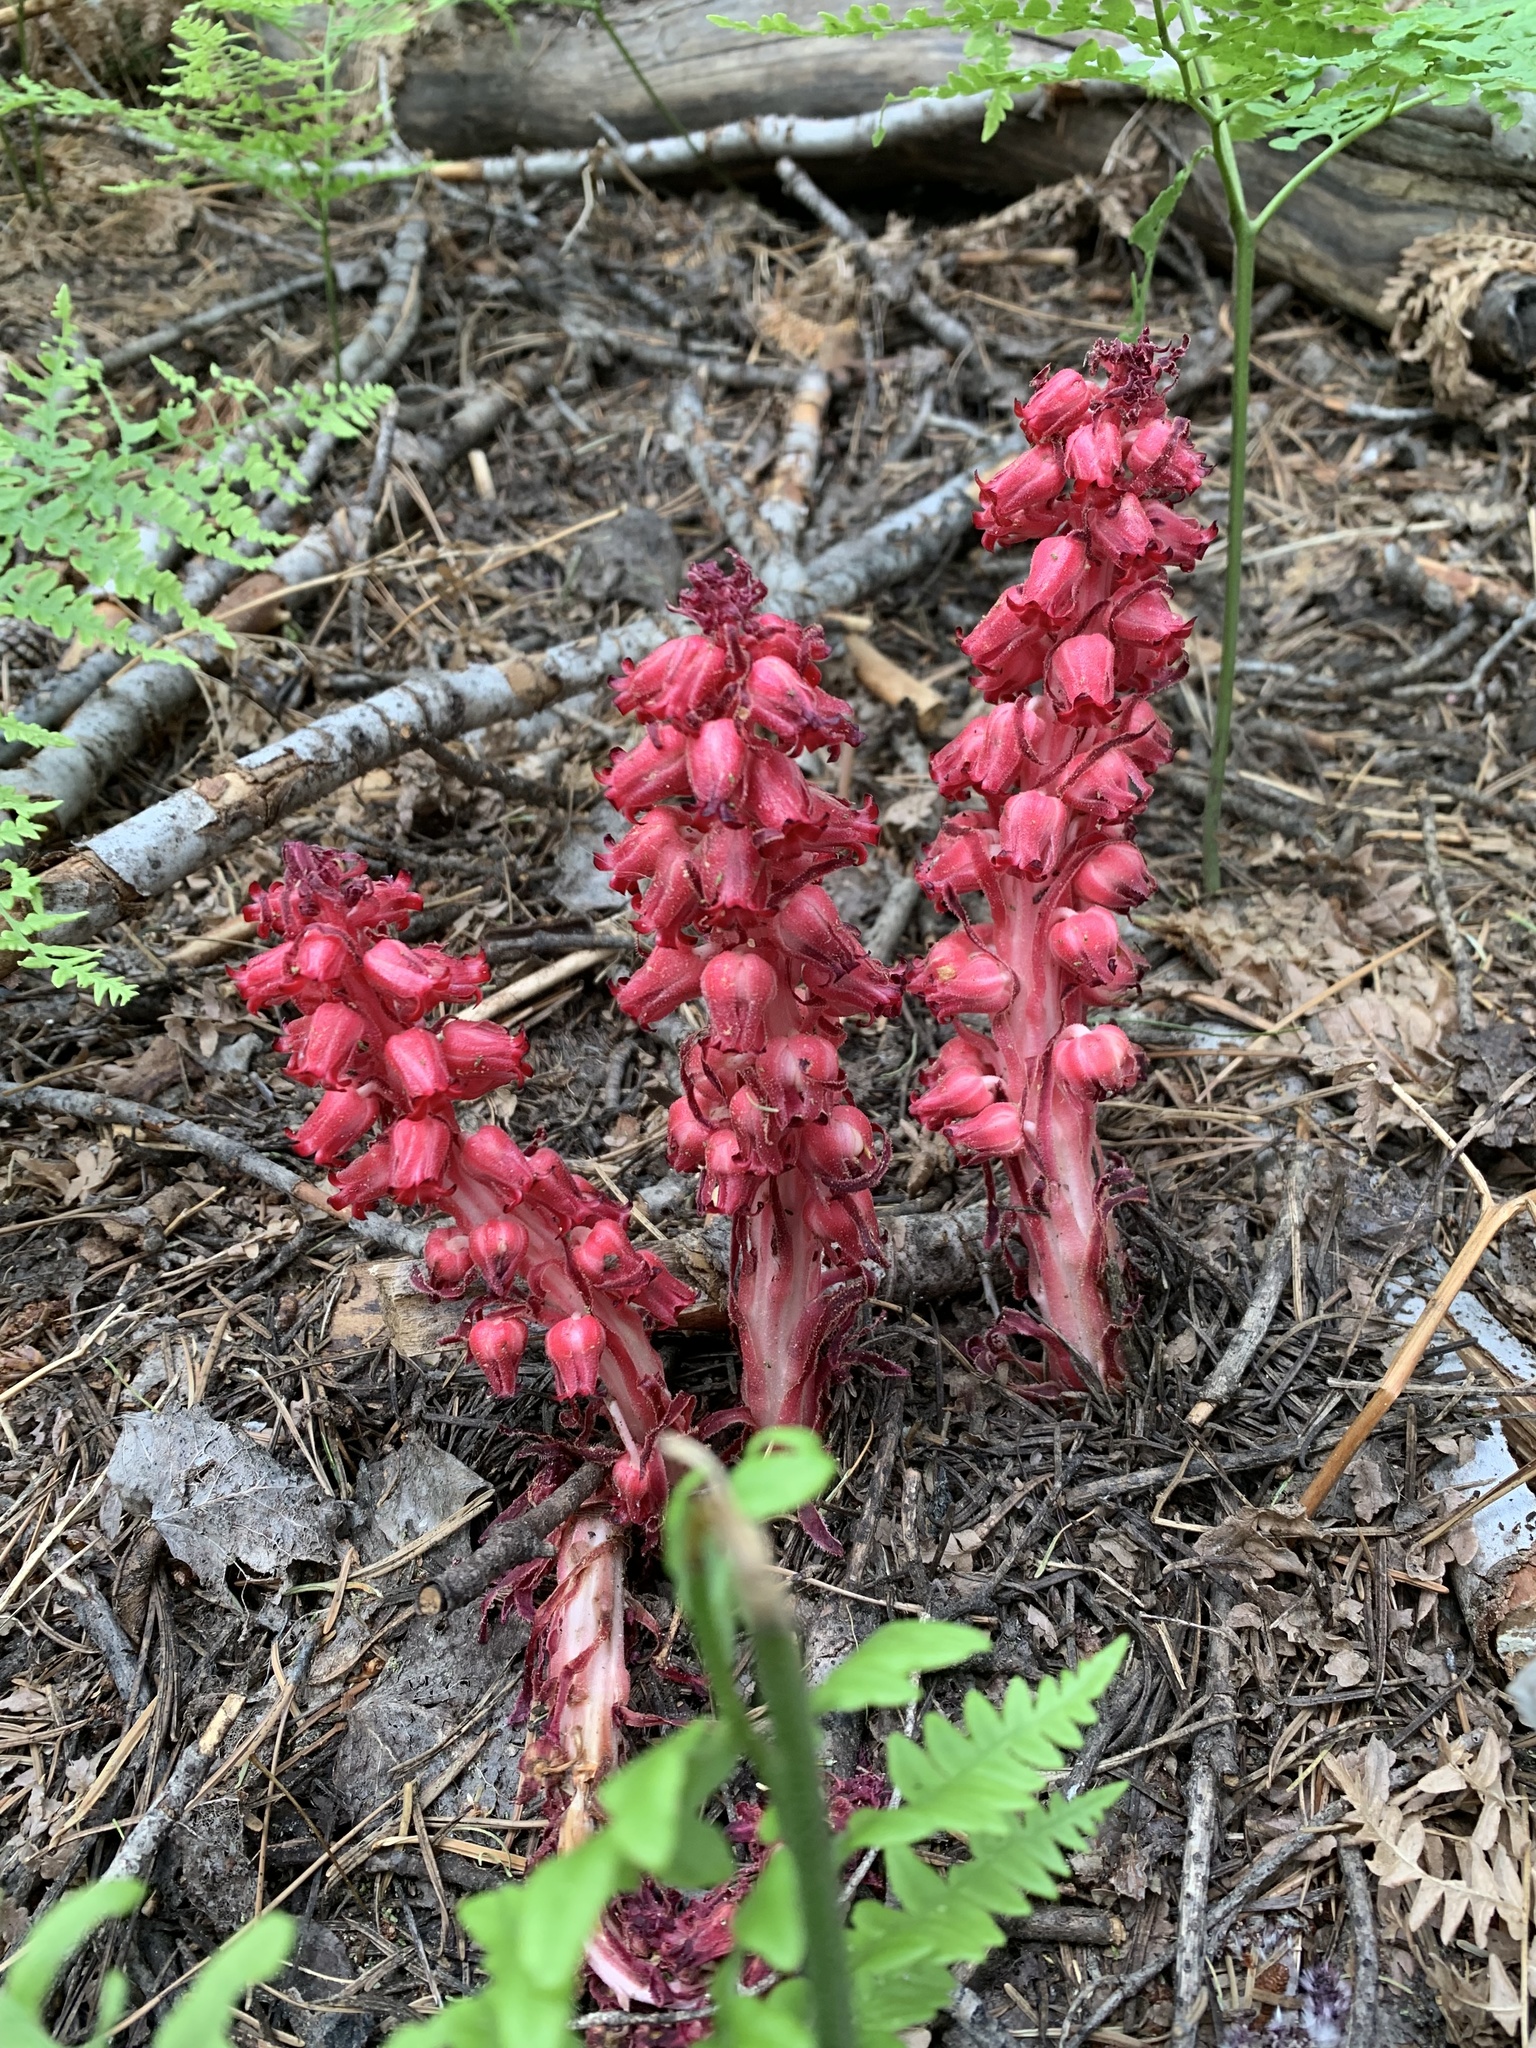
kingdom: Plantae
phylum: Tracheophyta
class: Magnoliopsida
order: Ericales
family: Ericaceae
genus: Sarcodes
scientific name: Sarcodes sanguinea
